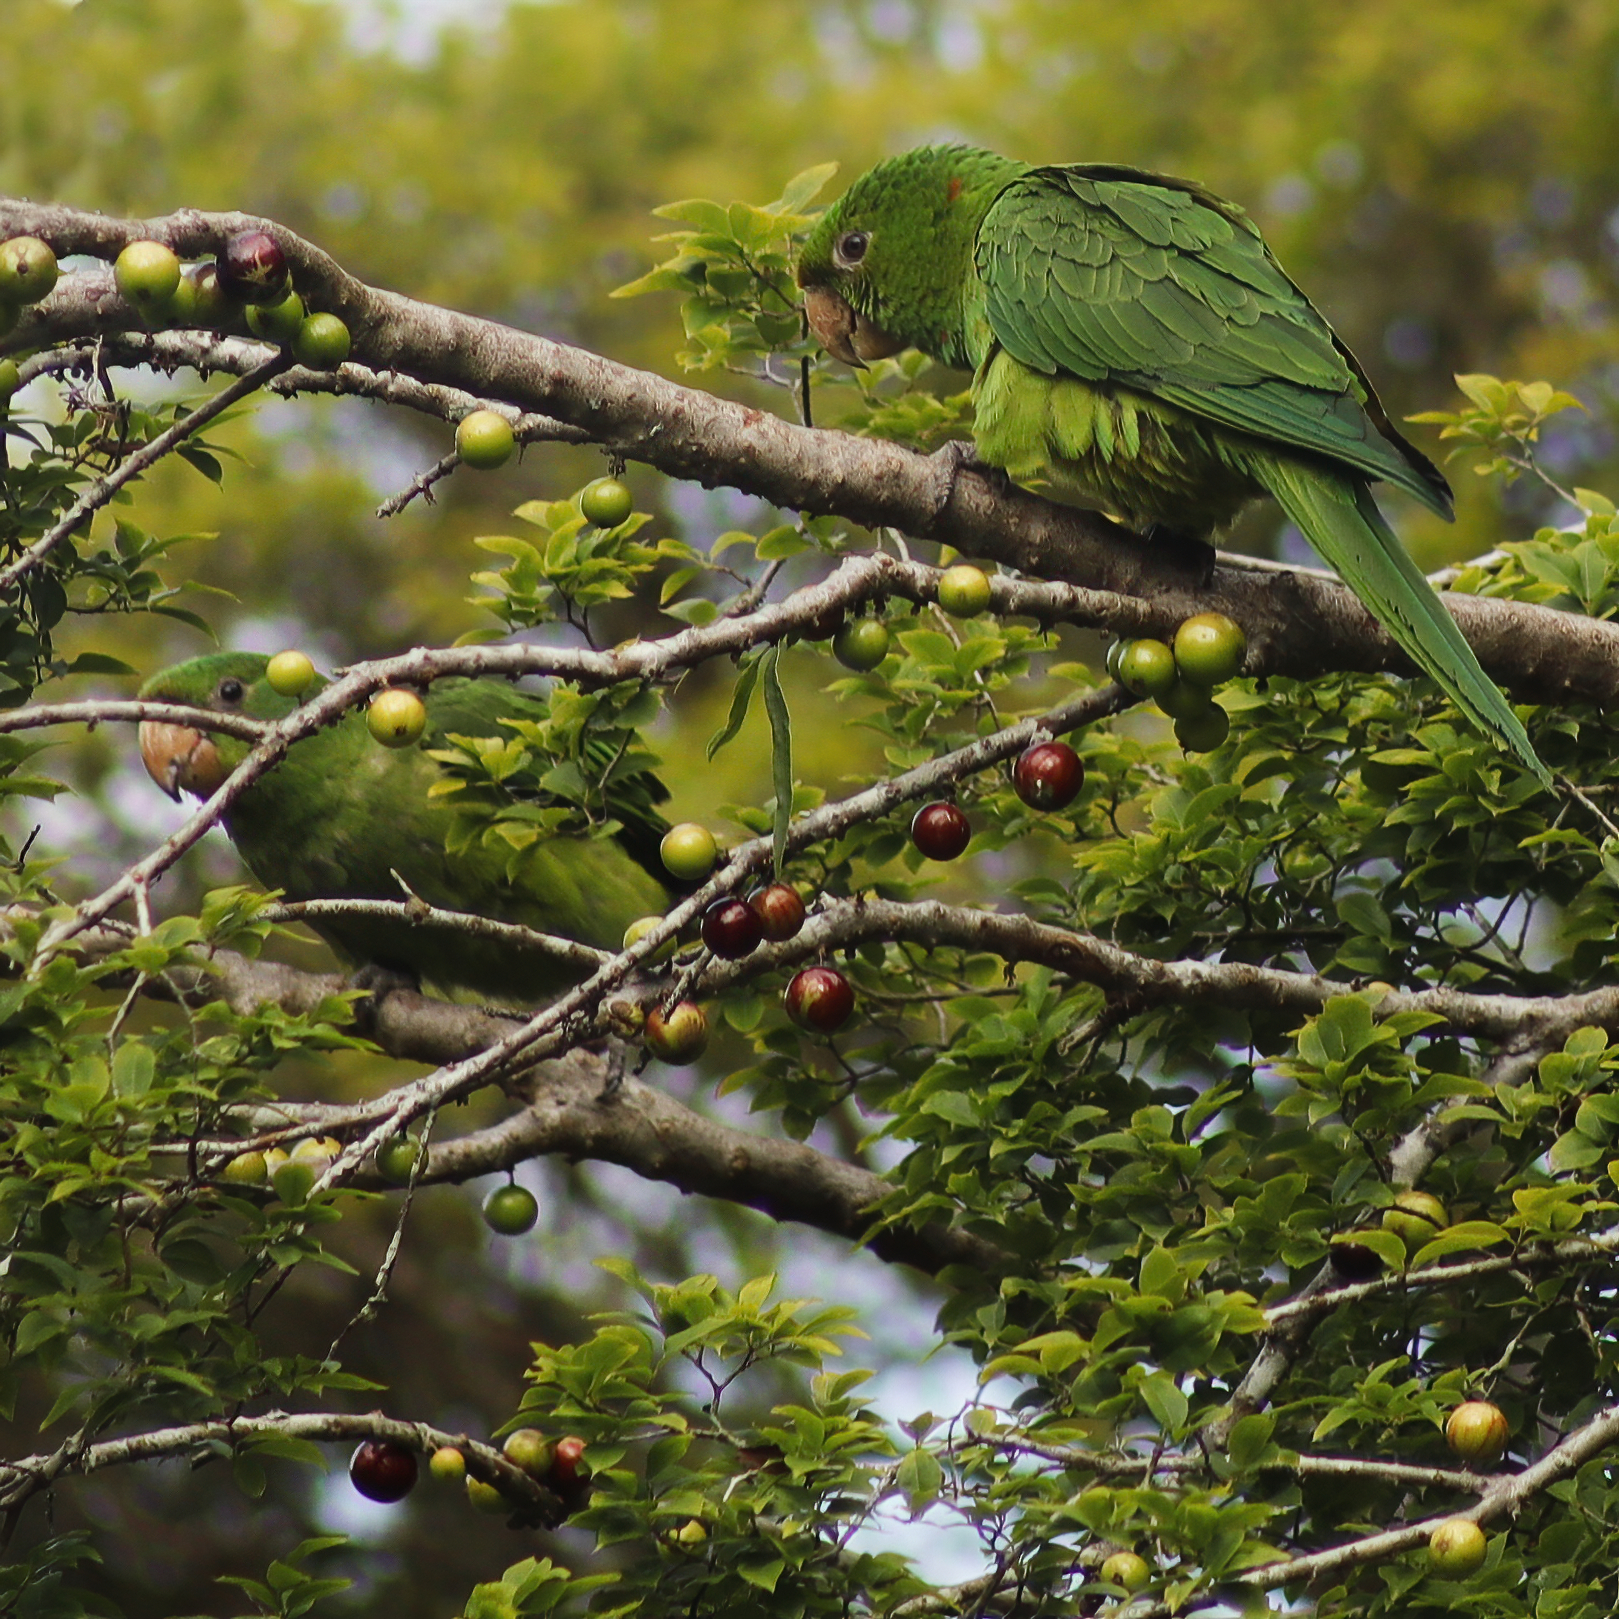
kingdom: Animalia
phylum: Chordata
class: Aves
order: Psittaciformes
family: Psittacidae
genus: Aratinga
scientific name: Aratinga leucophthalma
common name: White-eyed parakeet
